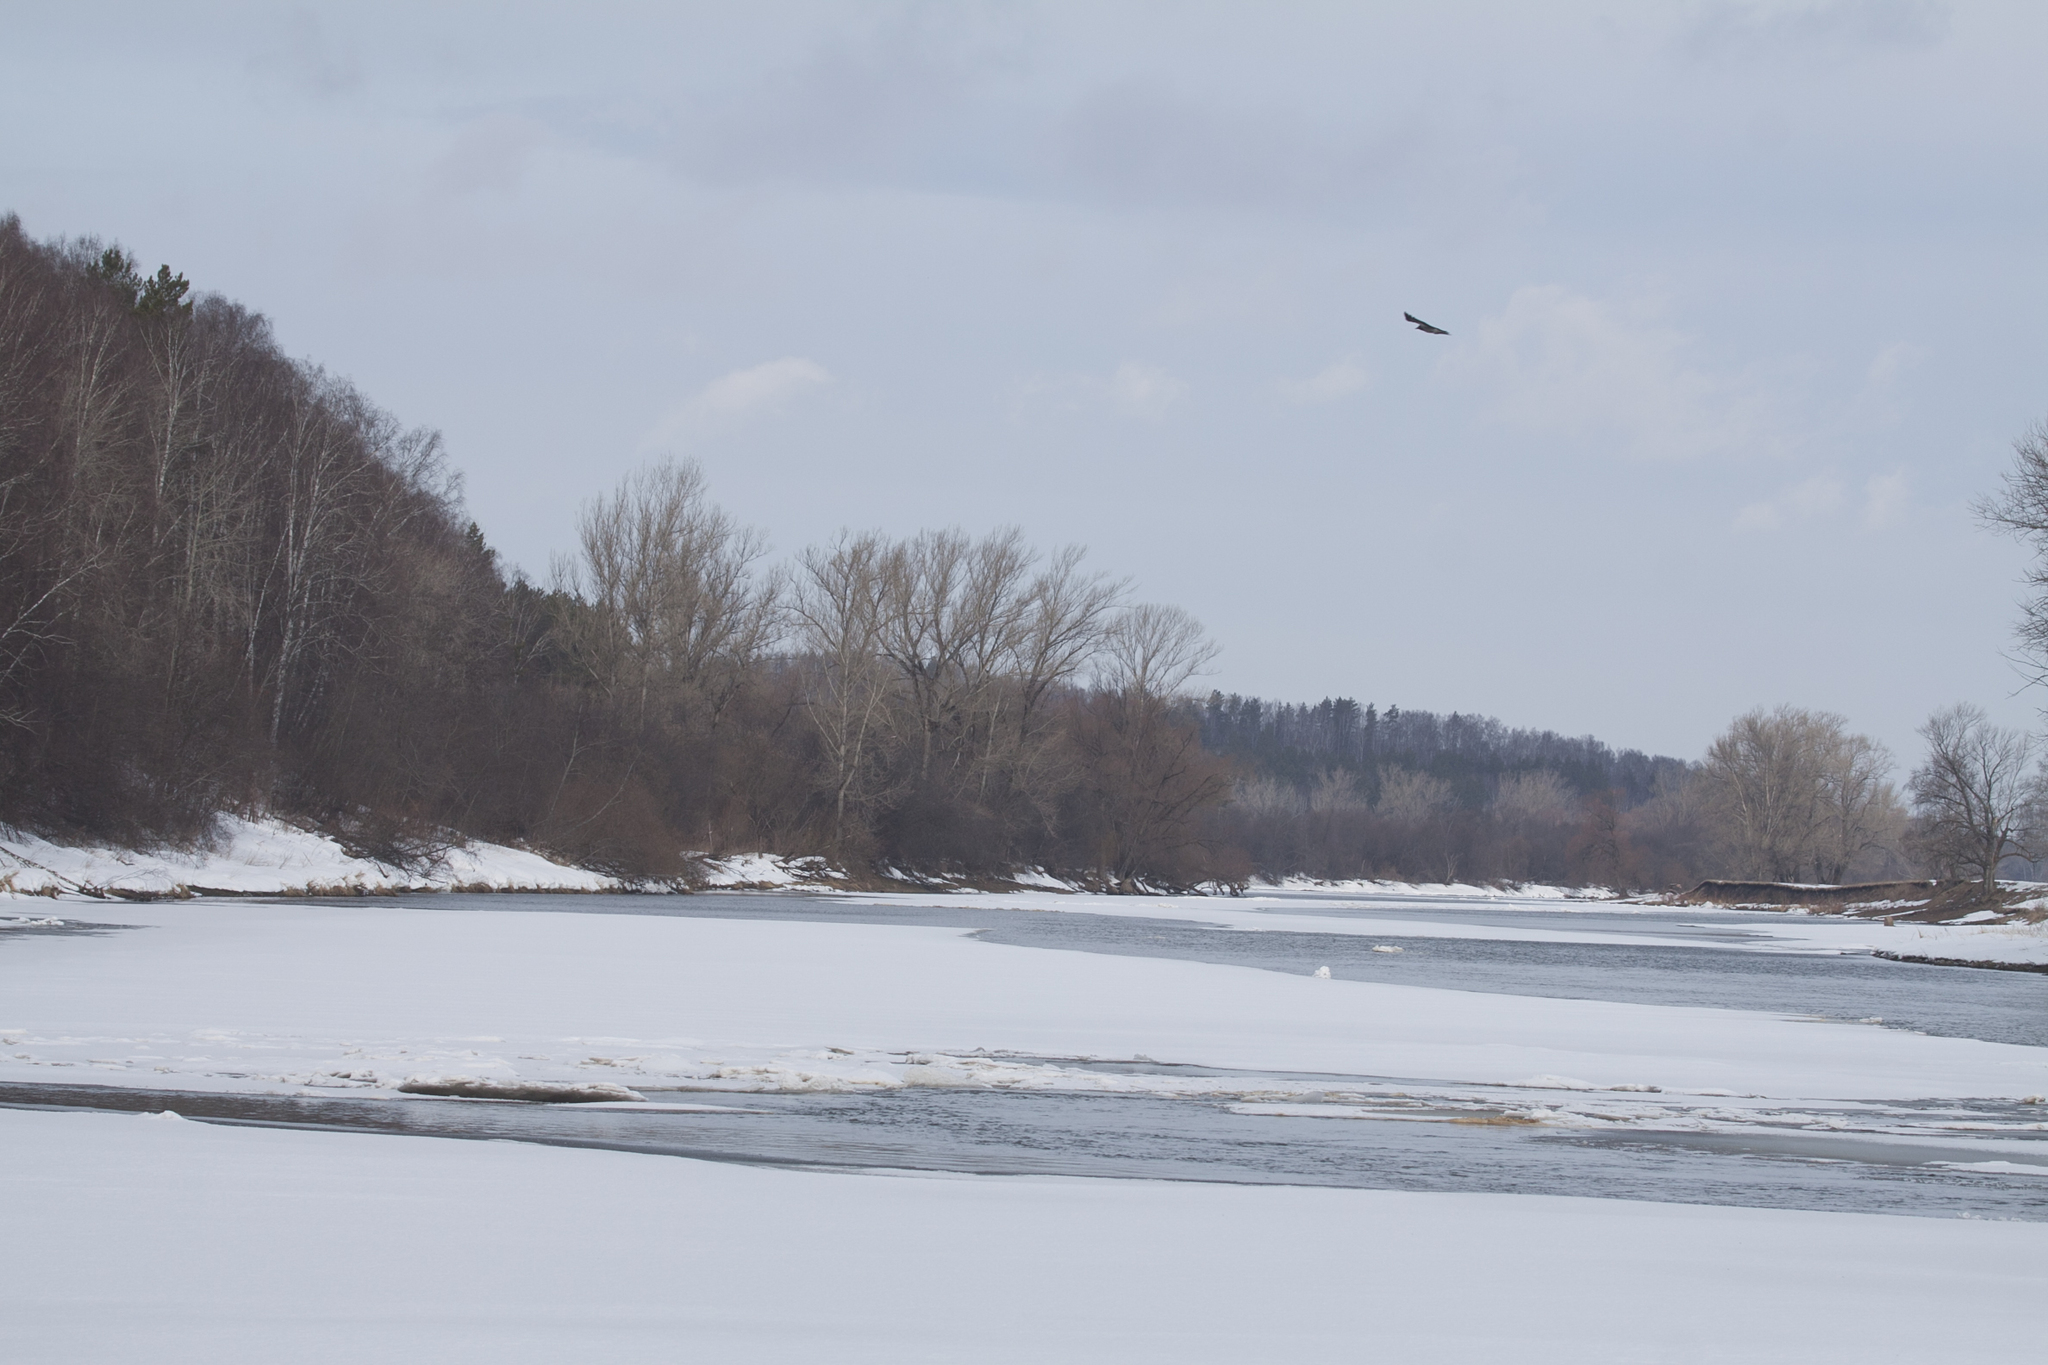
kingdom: Animalia
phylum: Chordata
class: Aves
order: Passeriformes
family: Corvidae
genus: Corvus
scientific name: Corvus cornix
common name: Hooded crow
